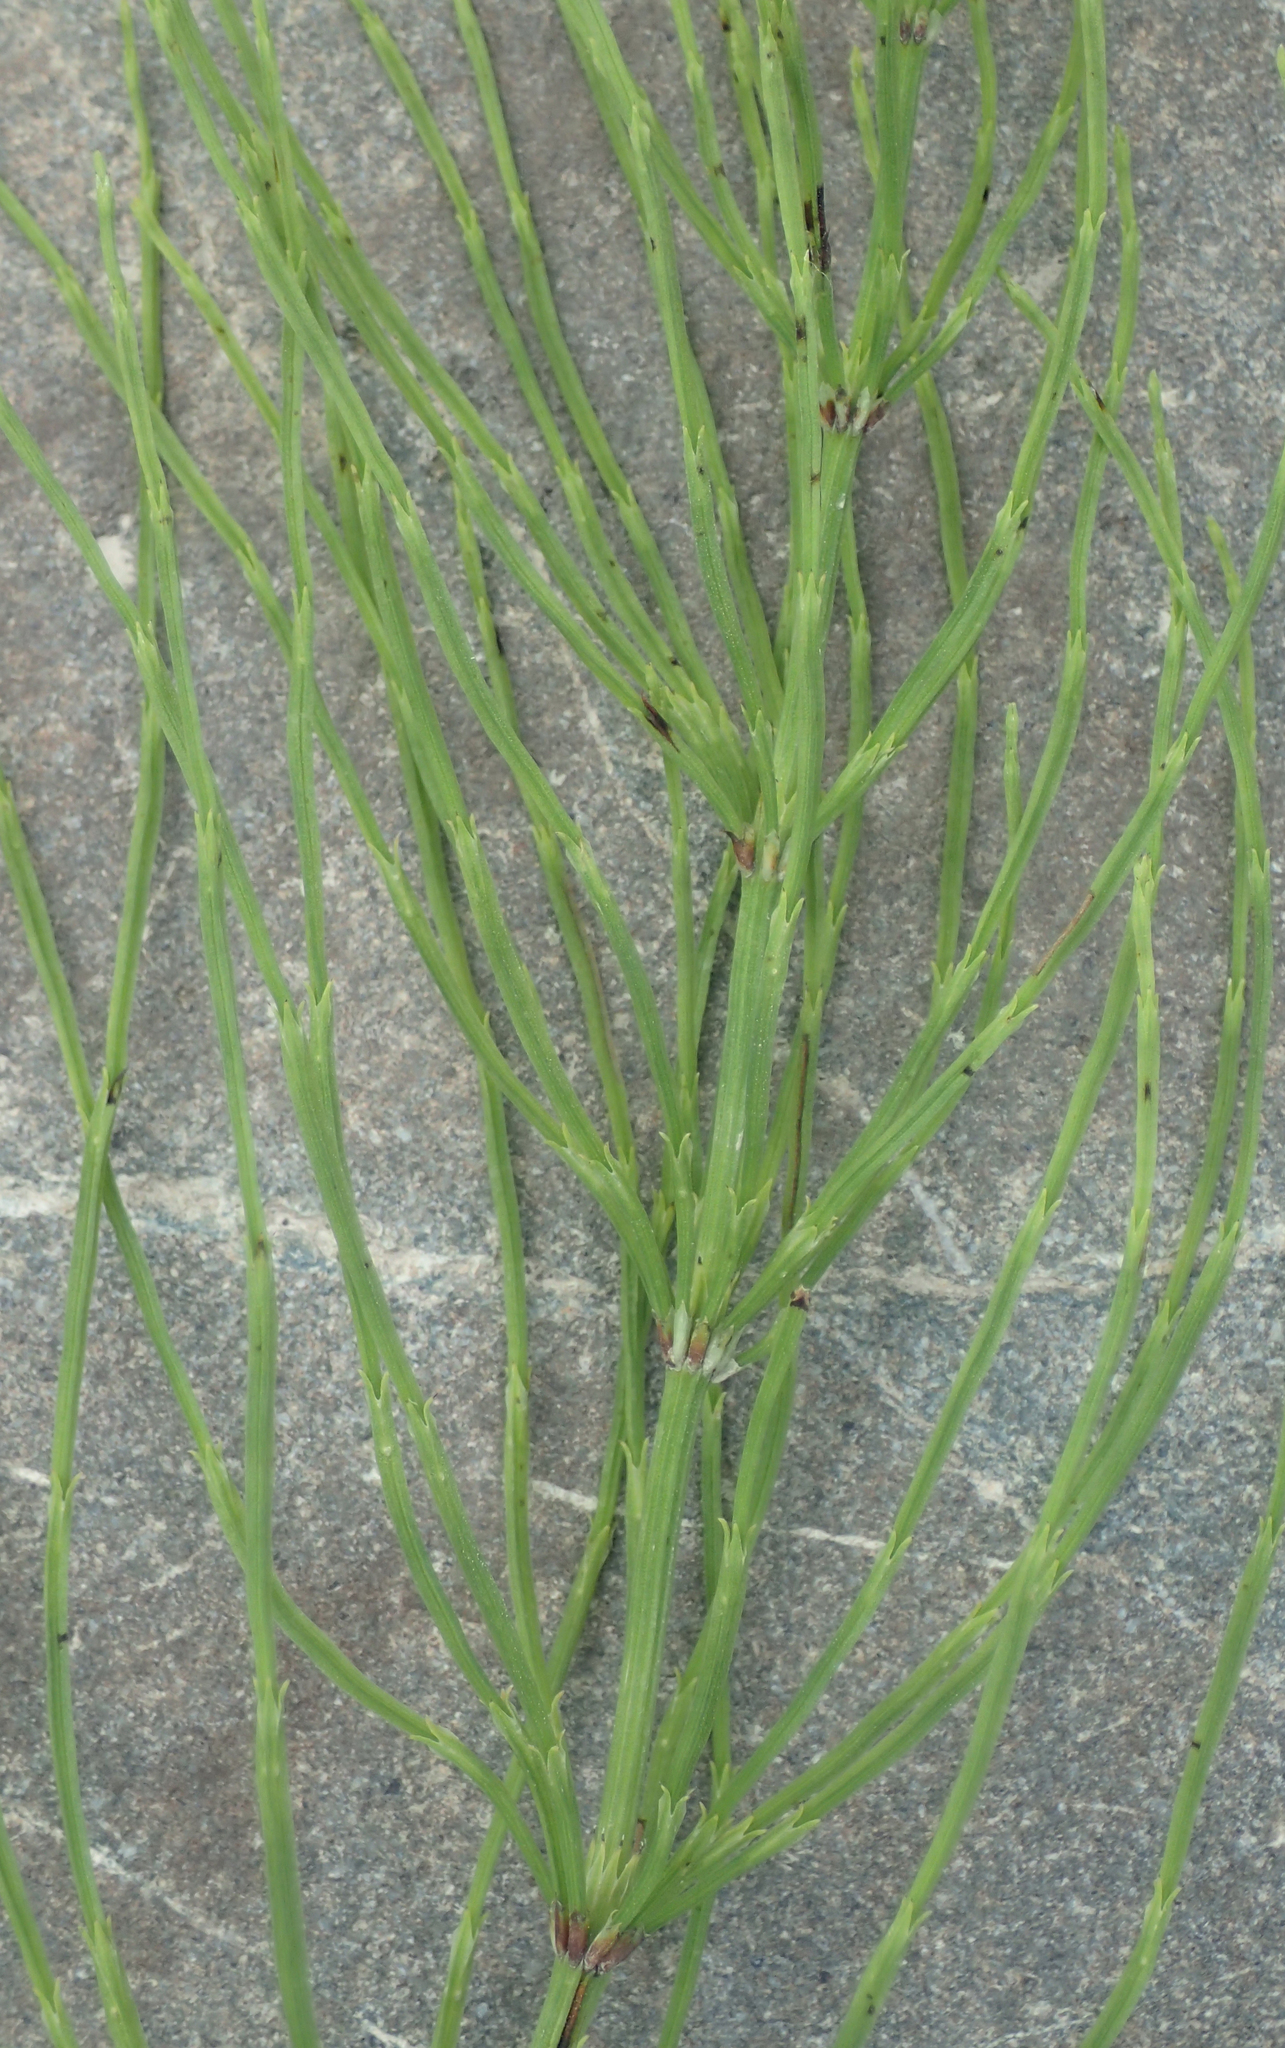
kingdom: Plantae
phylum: Tracheophyta
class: Polypodiopsida
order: Equisetales
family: Equisetaceae
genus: Equisetum
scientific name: Equisetum arvense
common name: Field horsetail
